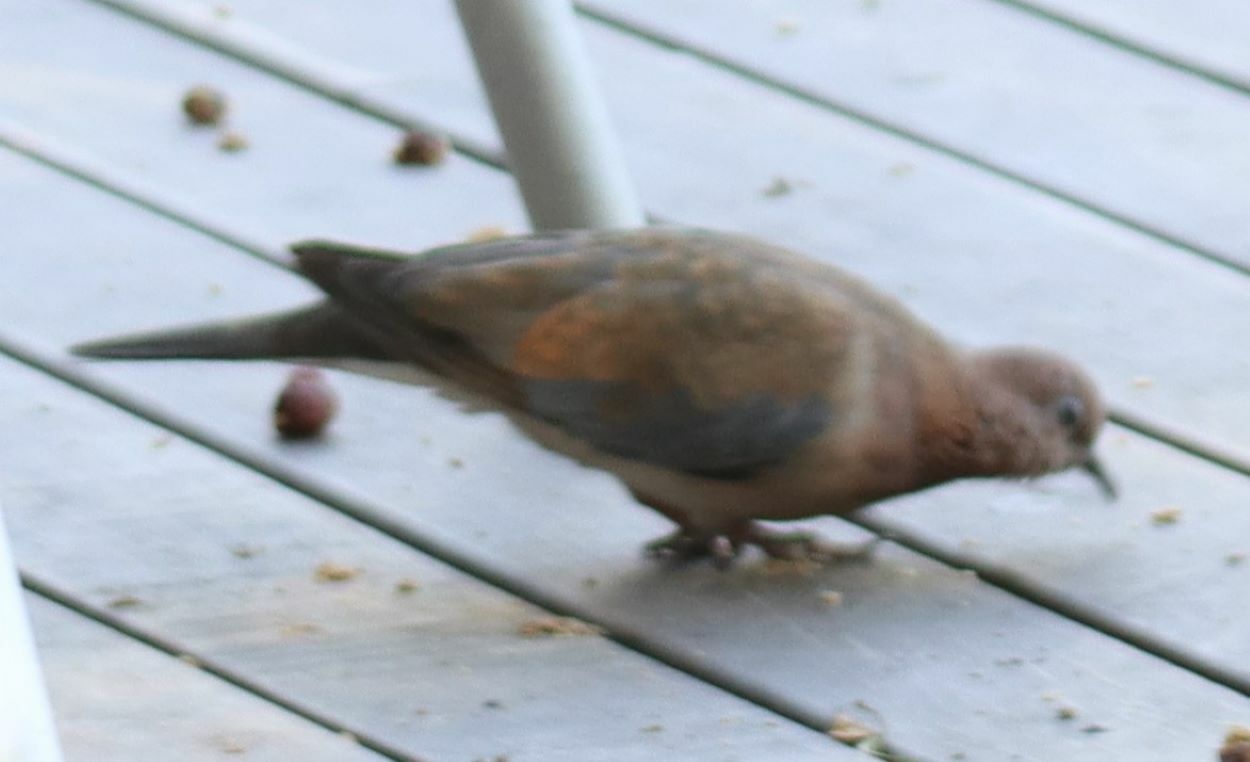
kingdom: Animalia
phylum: Chordata
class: Aves
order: Columbiformes
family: Columbidae
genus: Spilopelia
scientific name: Spilopelia senegalensis
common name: Laughing dove
